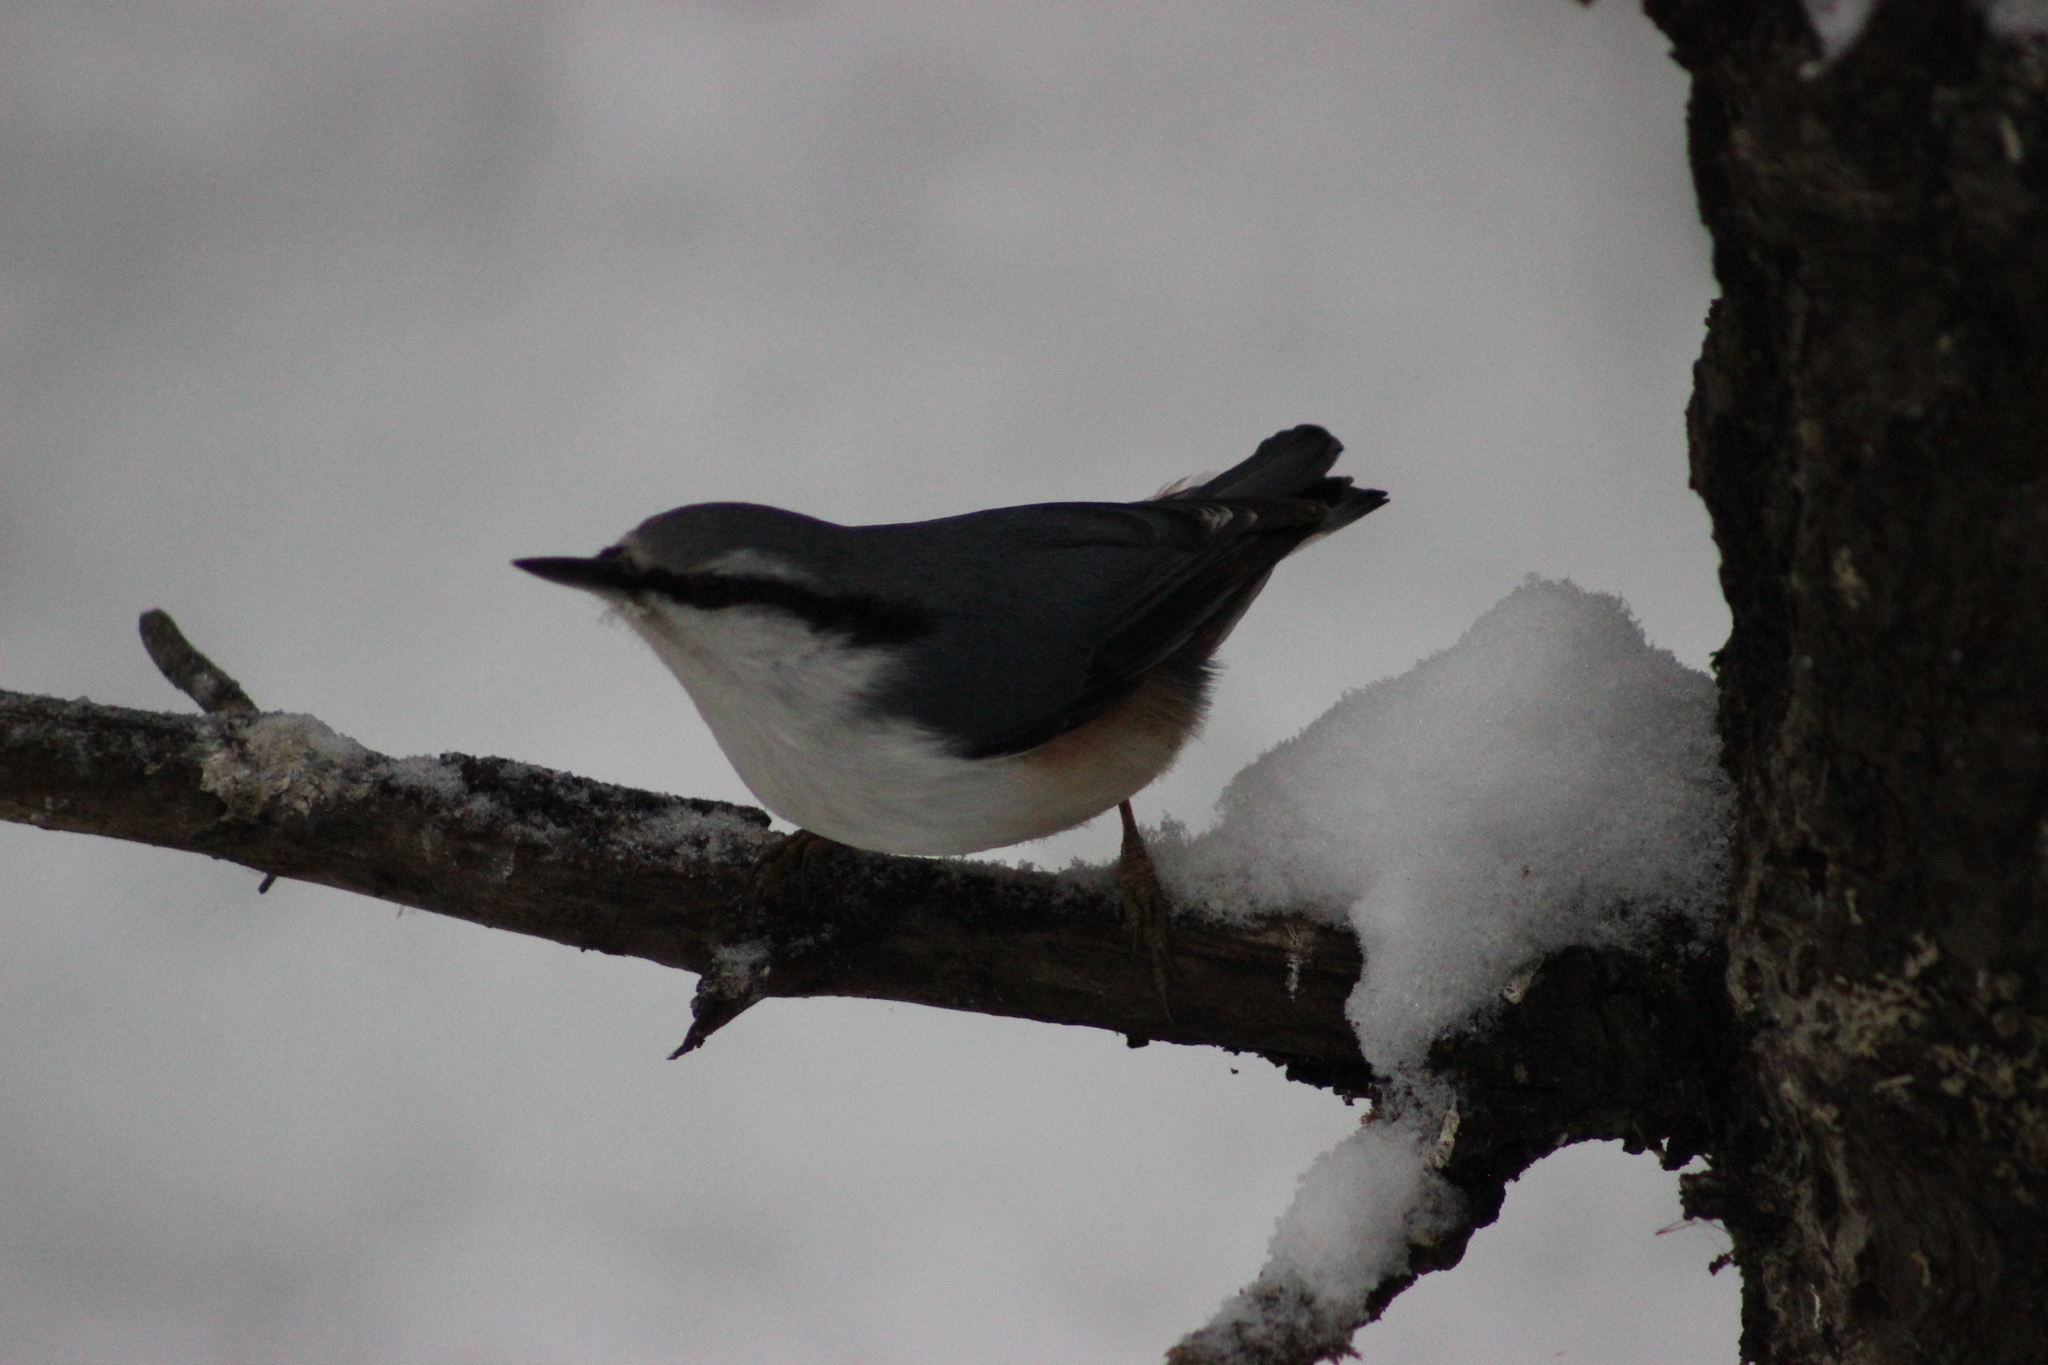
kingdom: Animalia
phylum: Chordata
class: Aves
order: Passeriformes
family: Sittidae
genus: Sitta
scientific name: Sitta europaea
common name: Eurasian nuthatch
